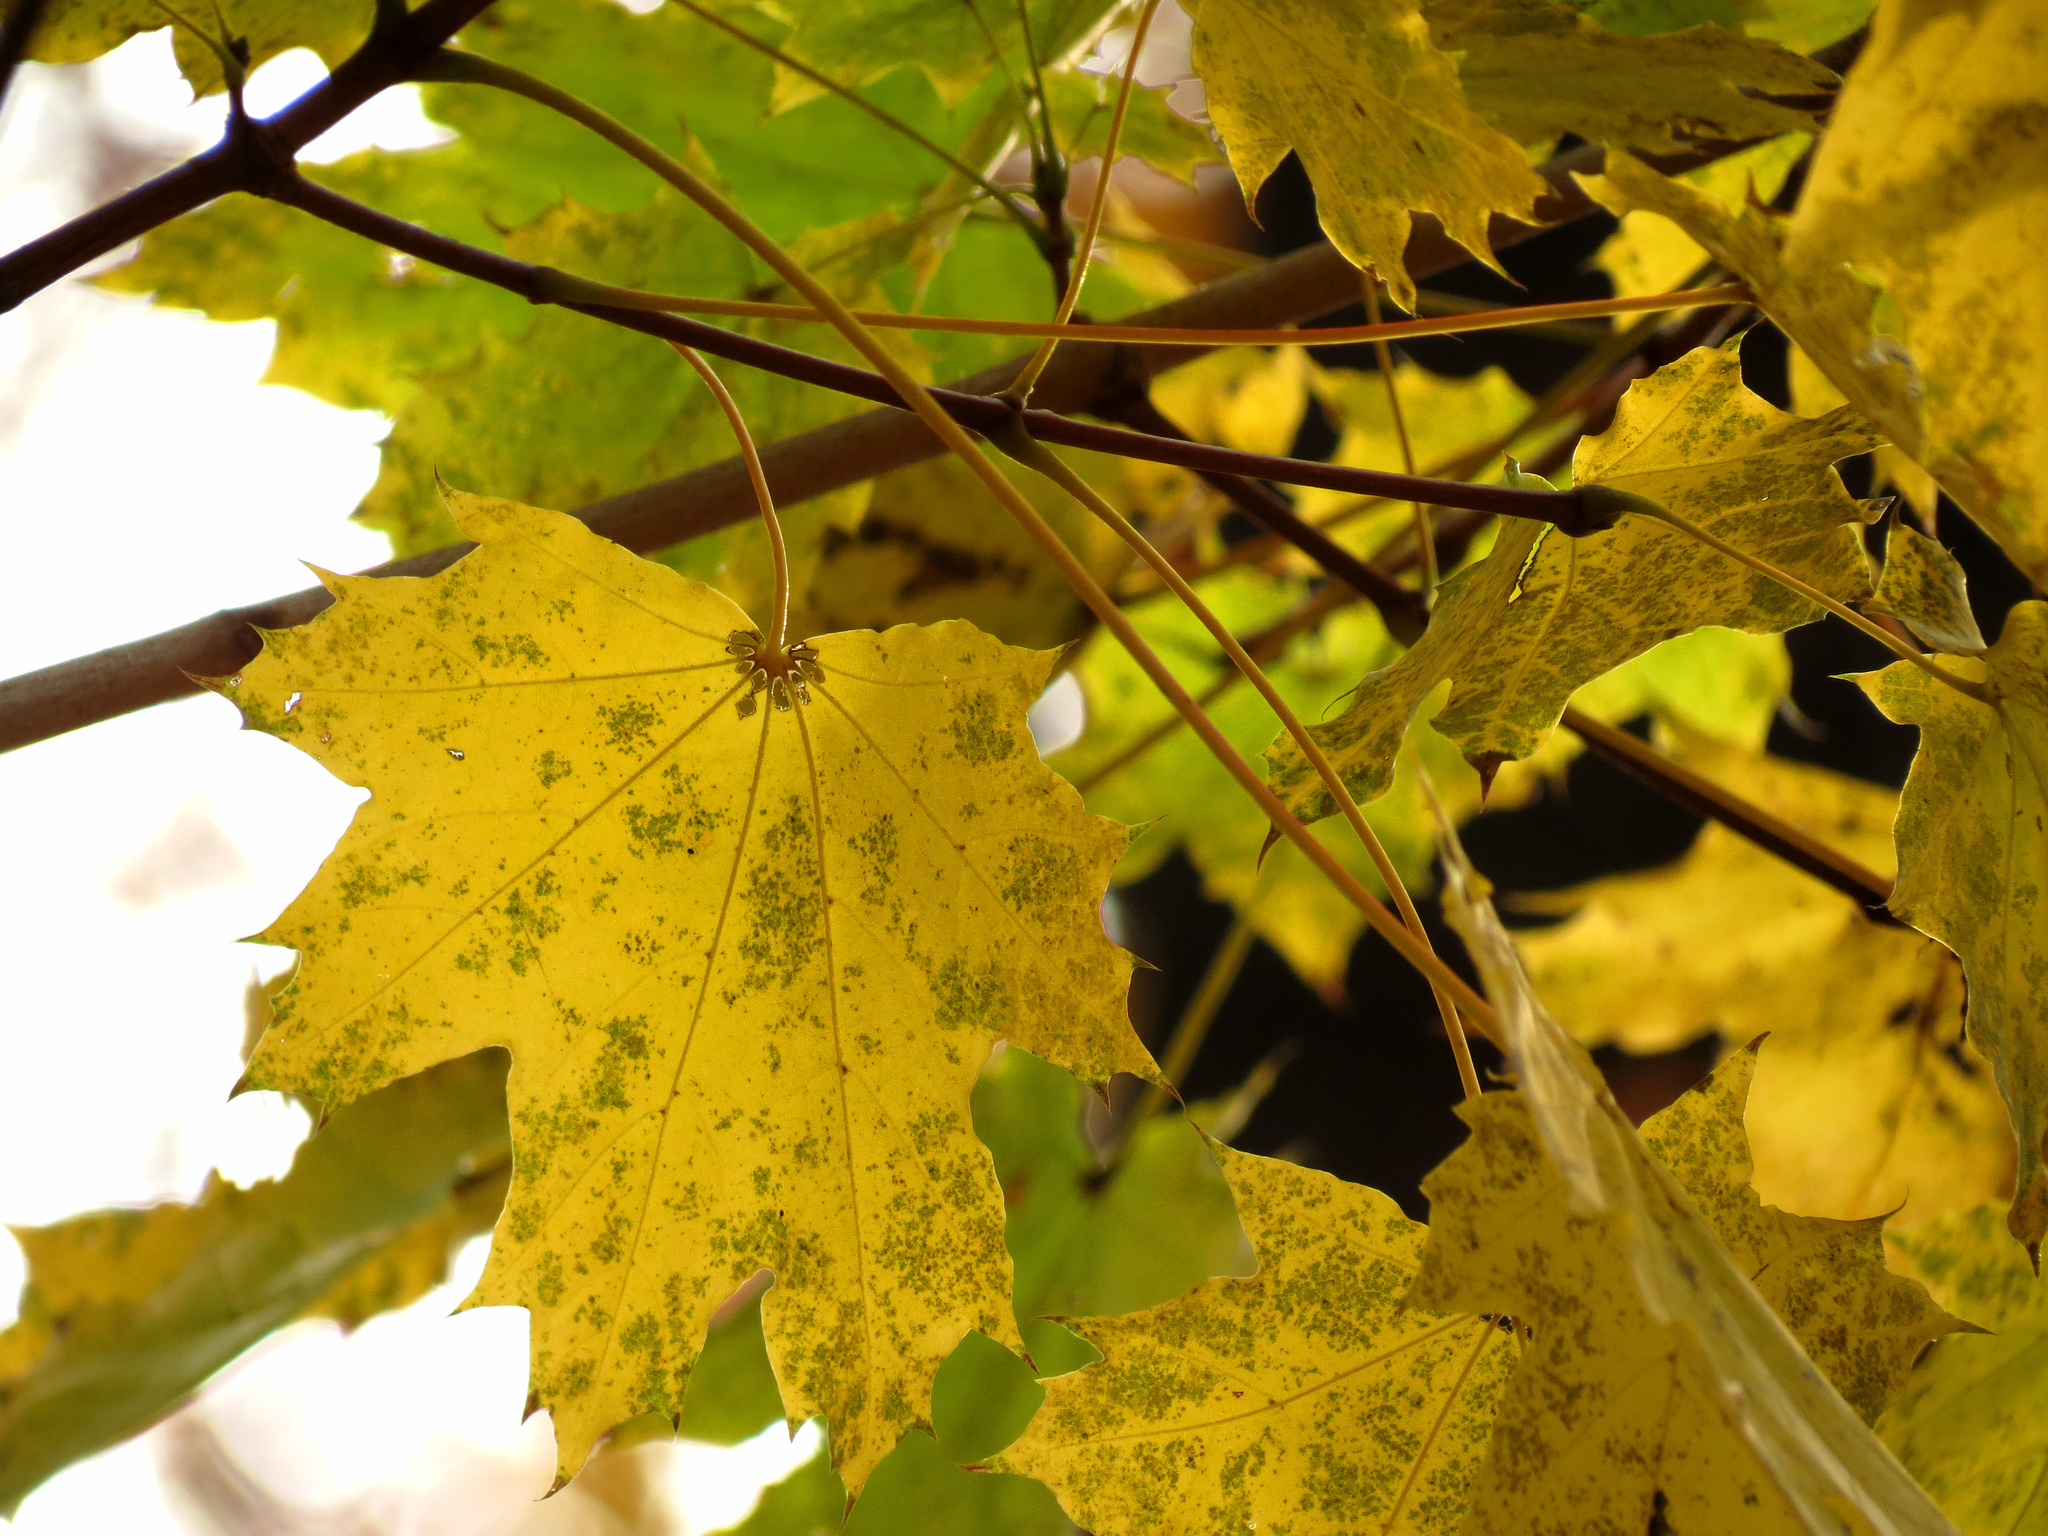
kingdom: Plantae
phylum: Tracheophyta
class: Magnoliopsida
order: Sapindales
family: Sapindaceae
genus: Acer
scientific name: Acer platanoides
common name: Norway maple
